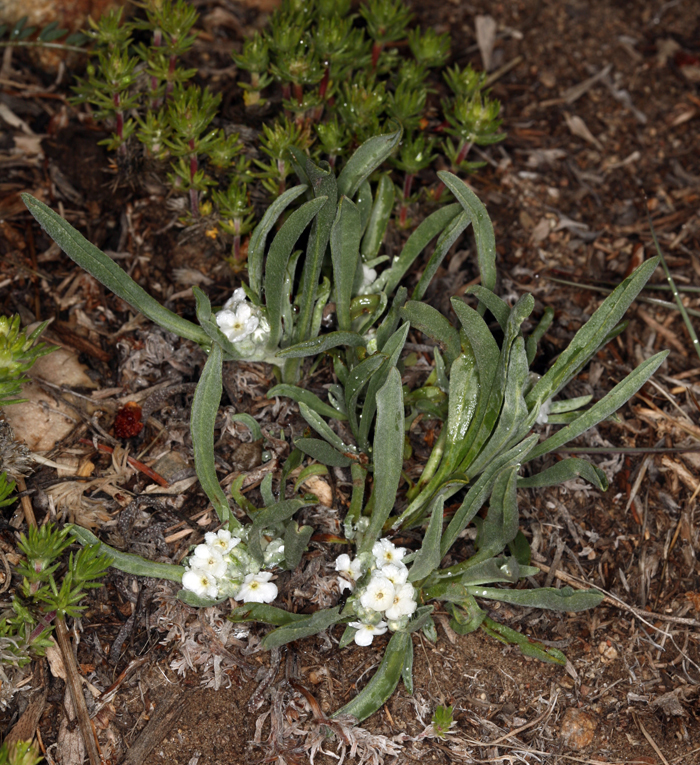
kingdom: Plantae
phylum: Tracheophyta
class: Magnoliopsida
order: Boraginales
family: Boraginaceae
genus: Oreocarya
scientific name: Oreocarya abortiva
